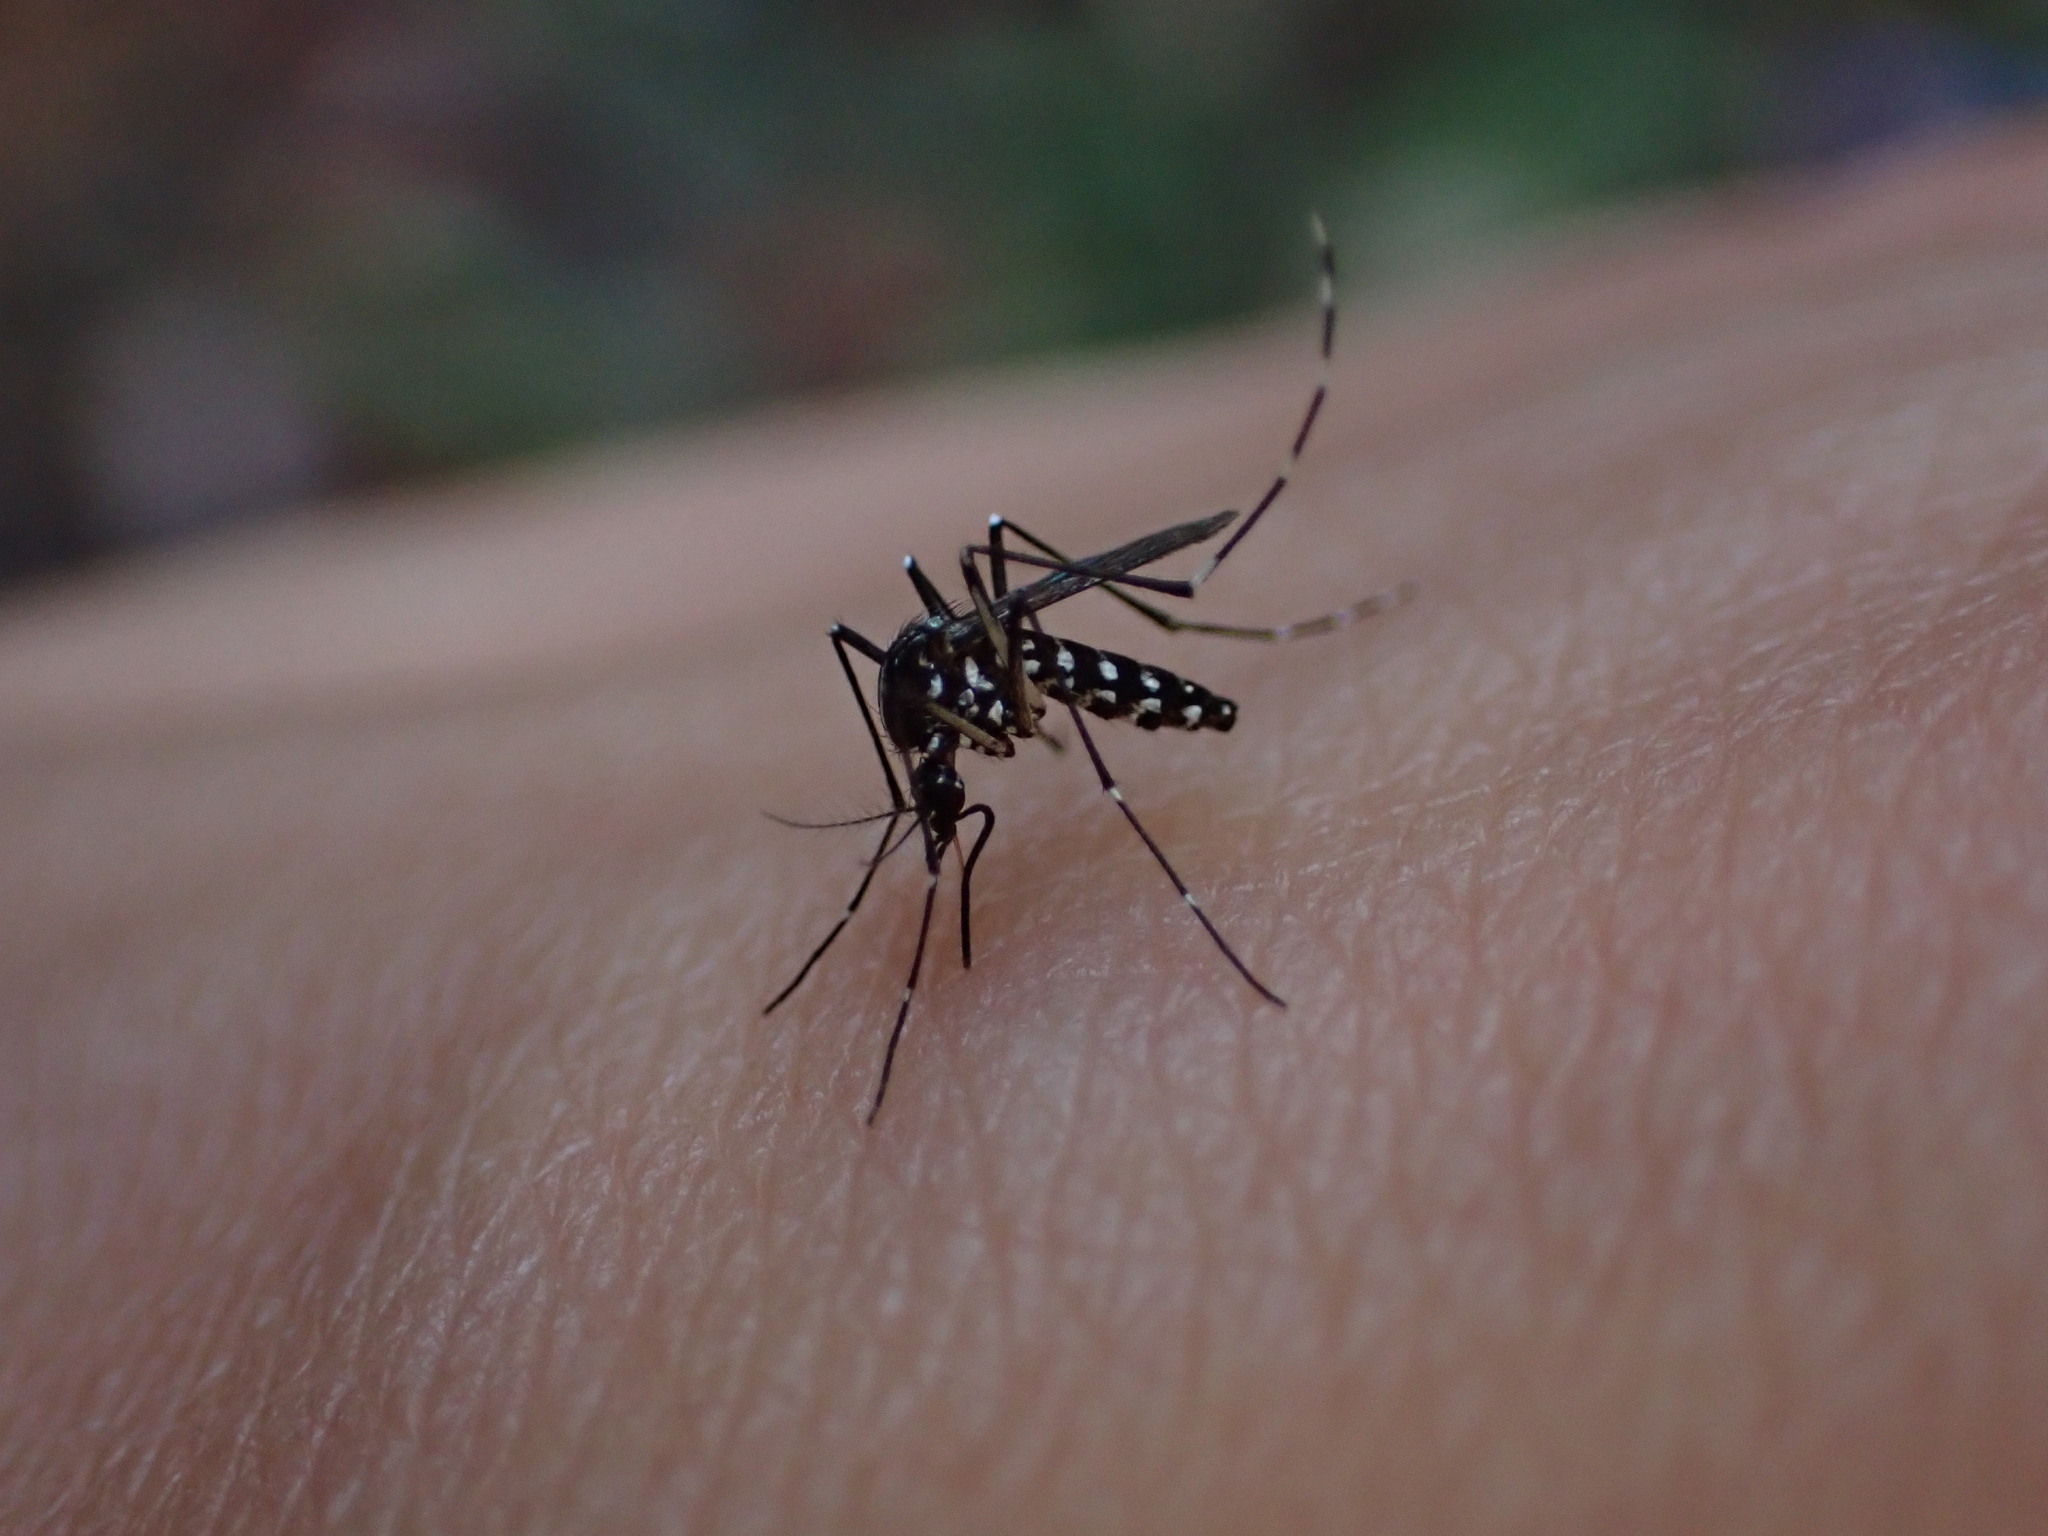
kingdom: Animalia
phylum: Arthropoda
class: Insecta
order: Diptera
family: Culicidae
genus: Aedes
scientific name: Aedes albopictus
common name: Tiger mosquito
